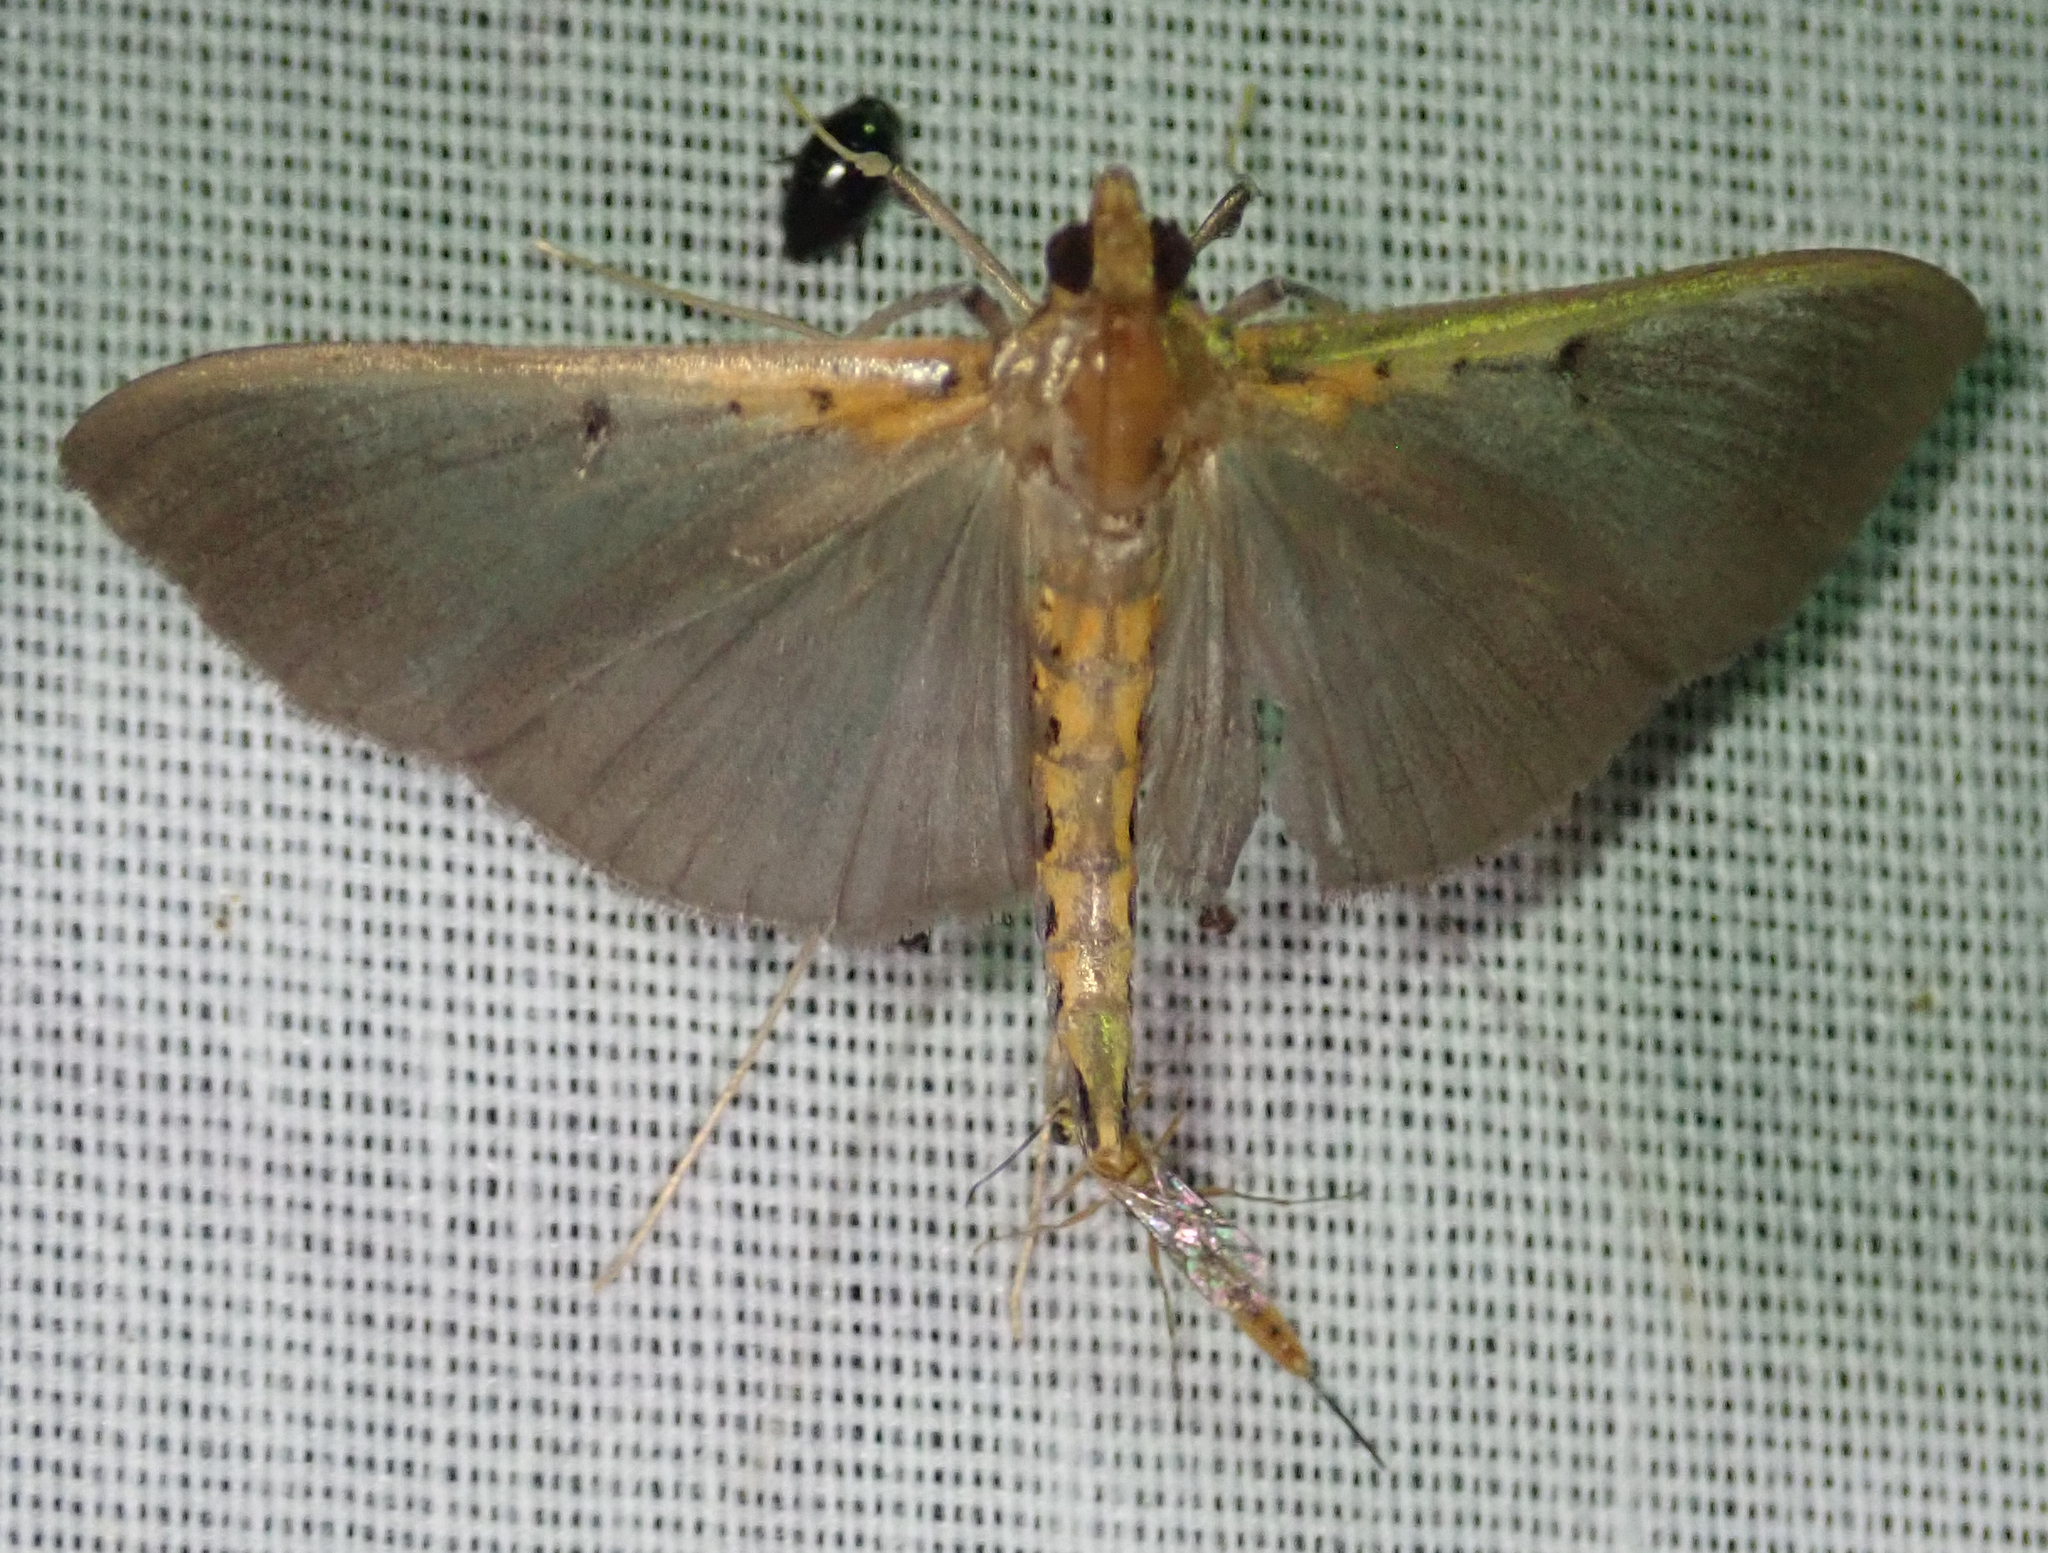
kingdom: Animalia
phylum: Arthropoda
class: Insecta
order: Lepidoptera
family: Crambidae
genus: Filodes
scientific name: Filodes costivitralis
